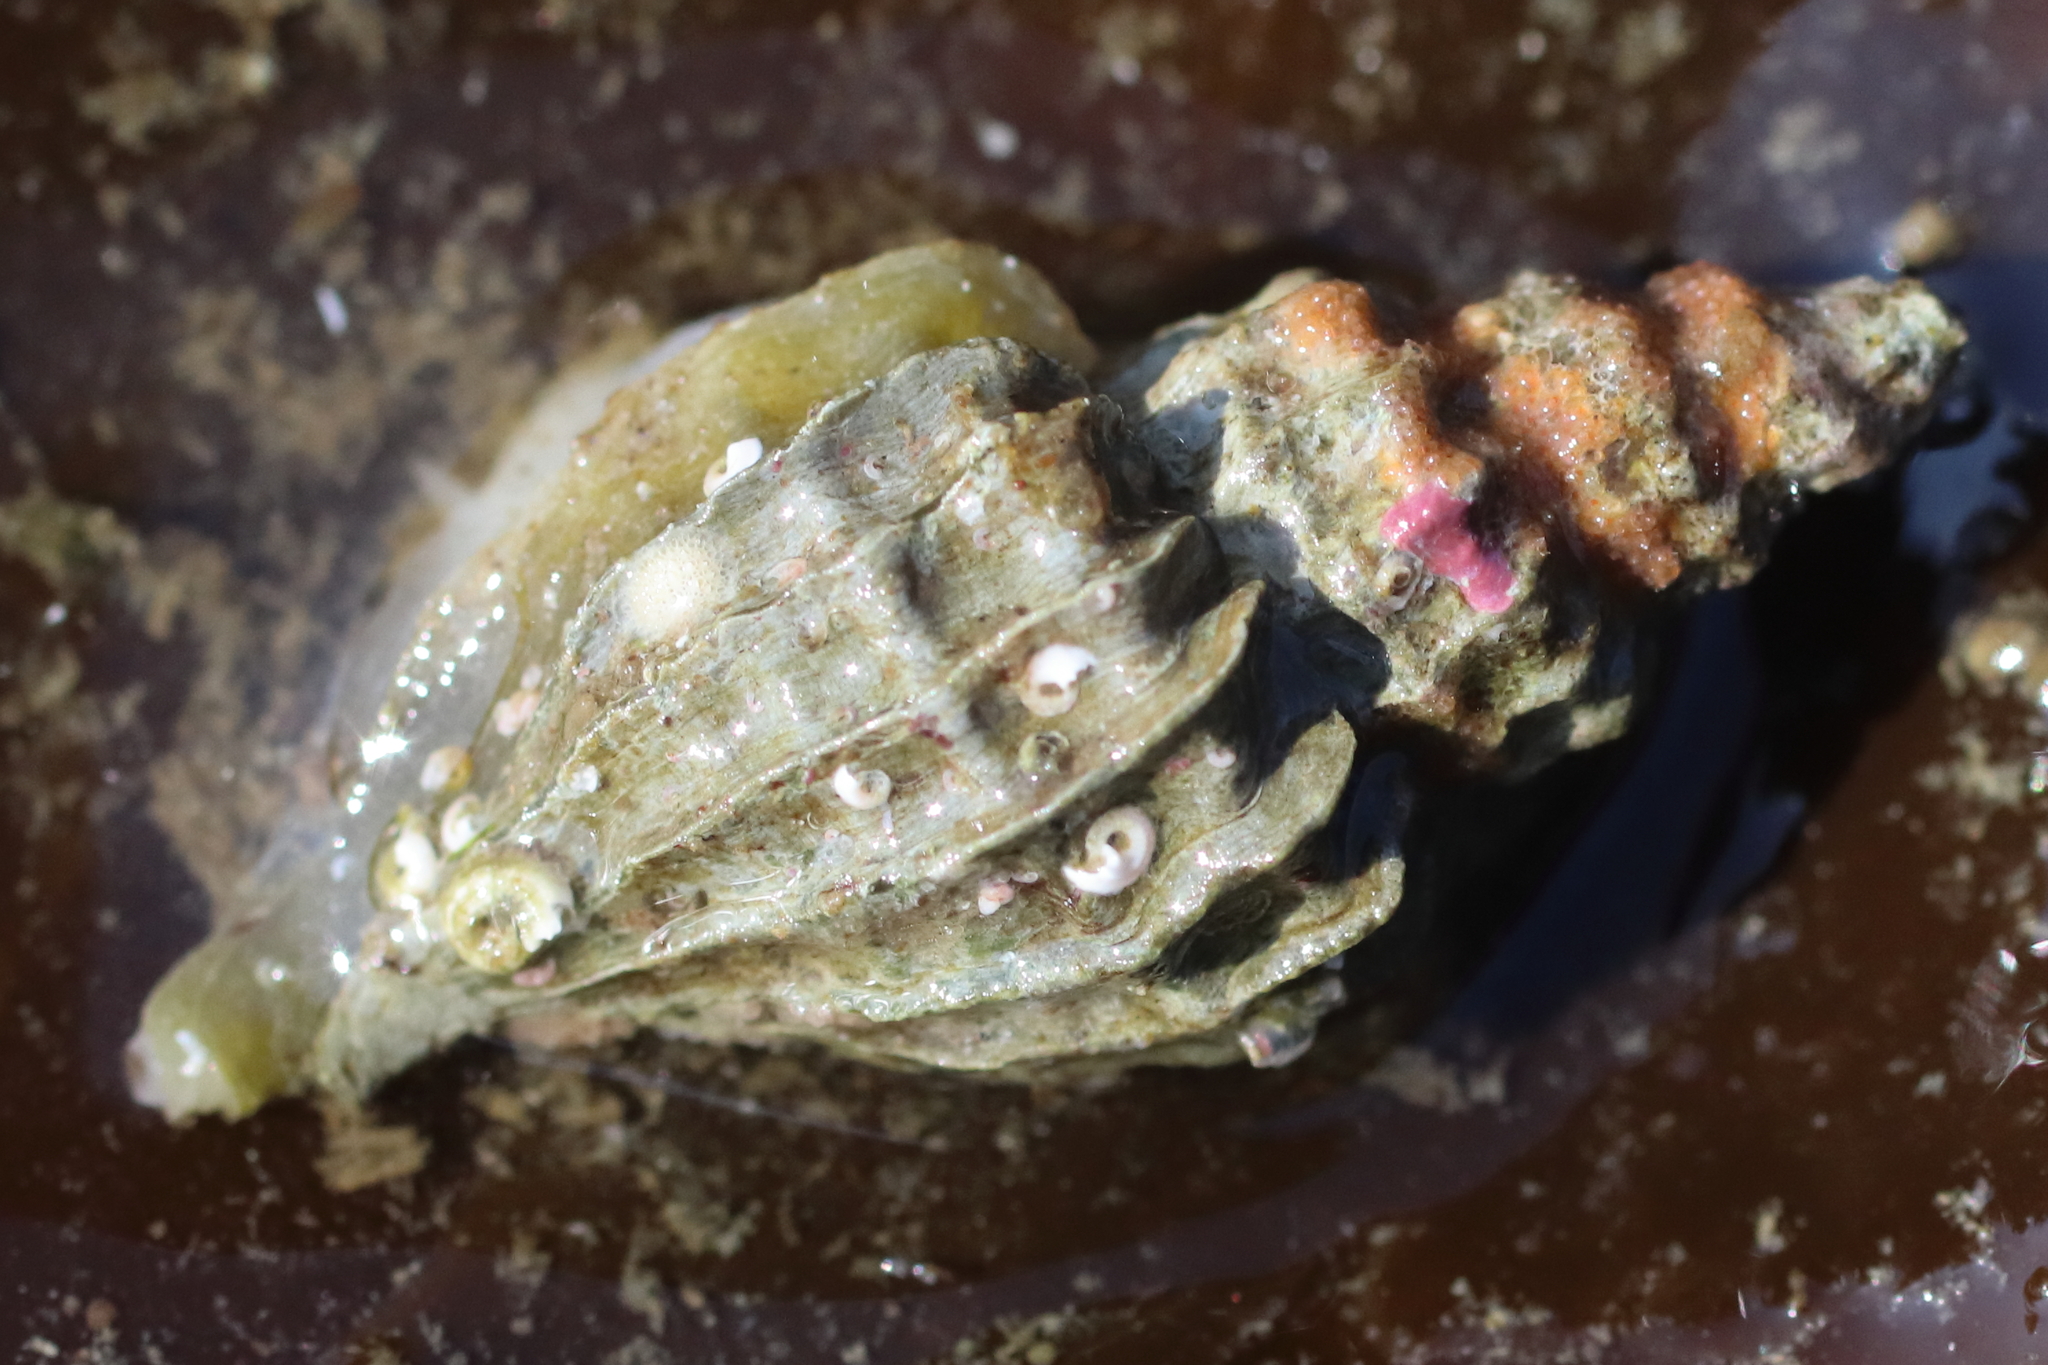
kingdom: Animalia
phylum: Mollusca
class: Gastropoda
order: Neogastropoda
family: Muricidae
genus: Scabrotrophon
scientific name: Scabrotrophon stuarti
